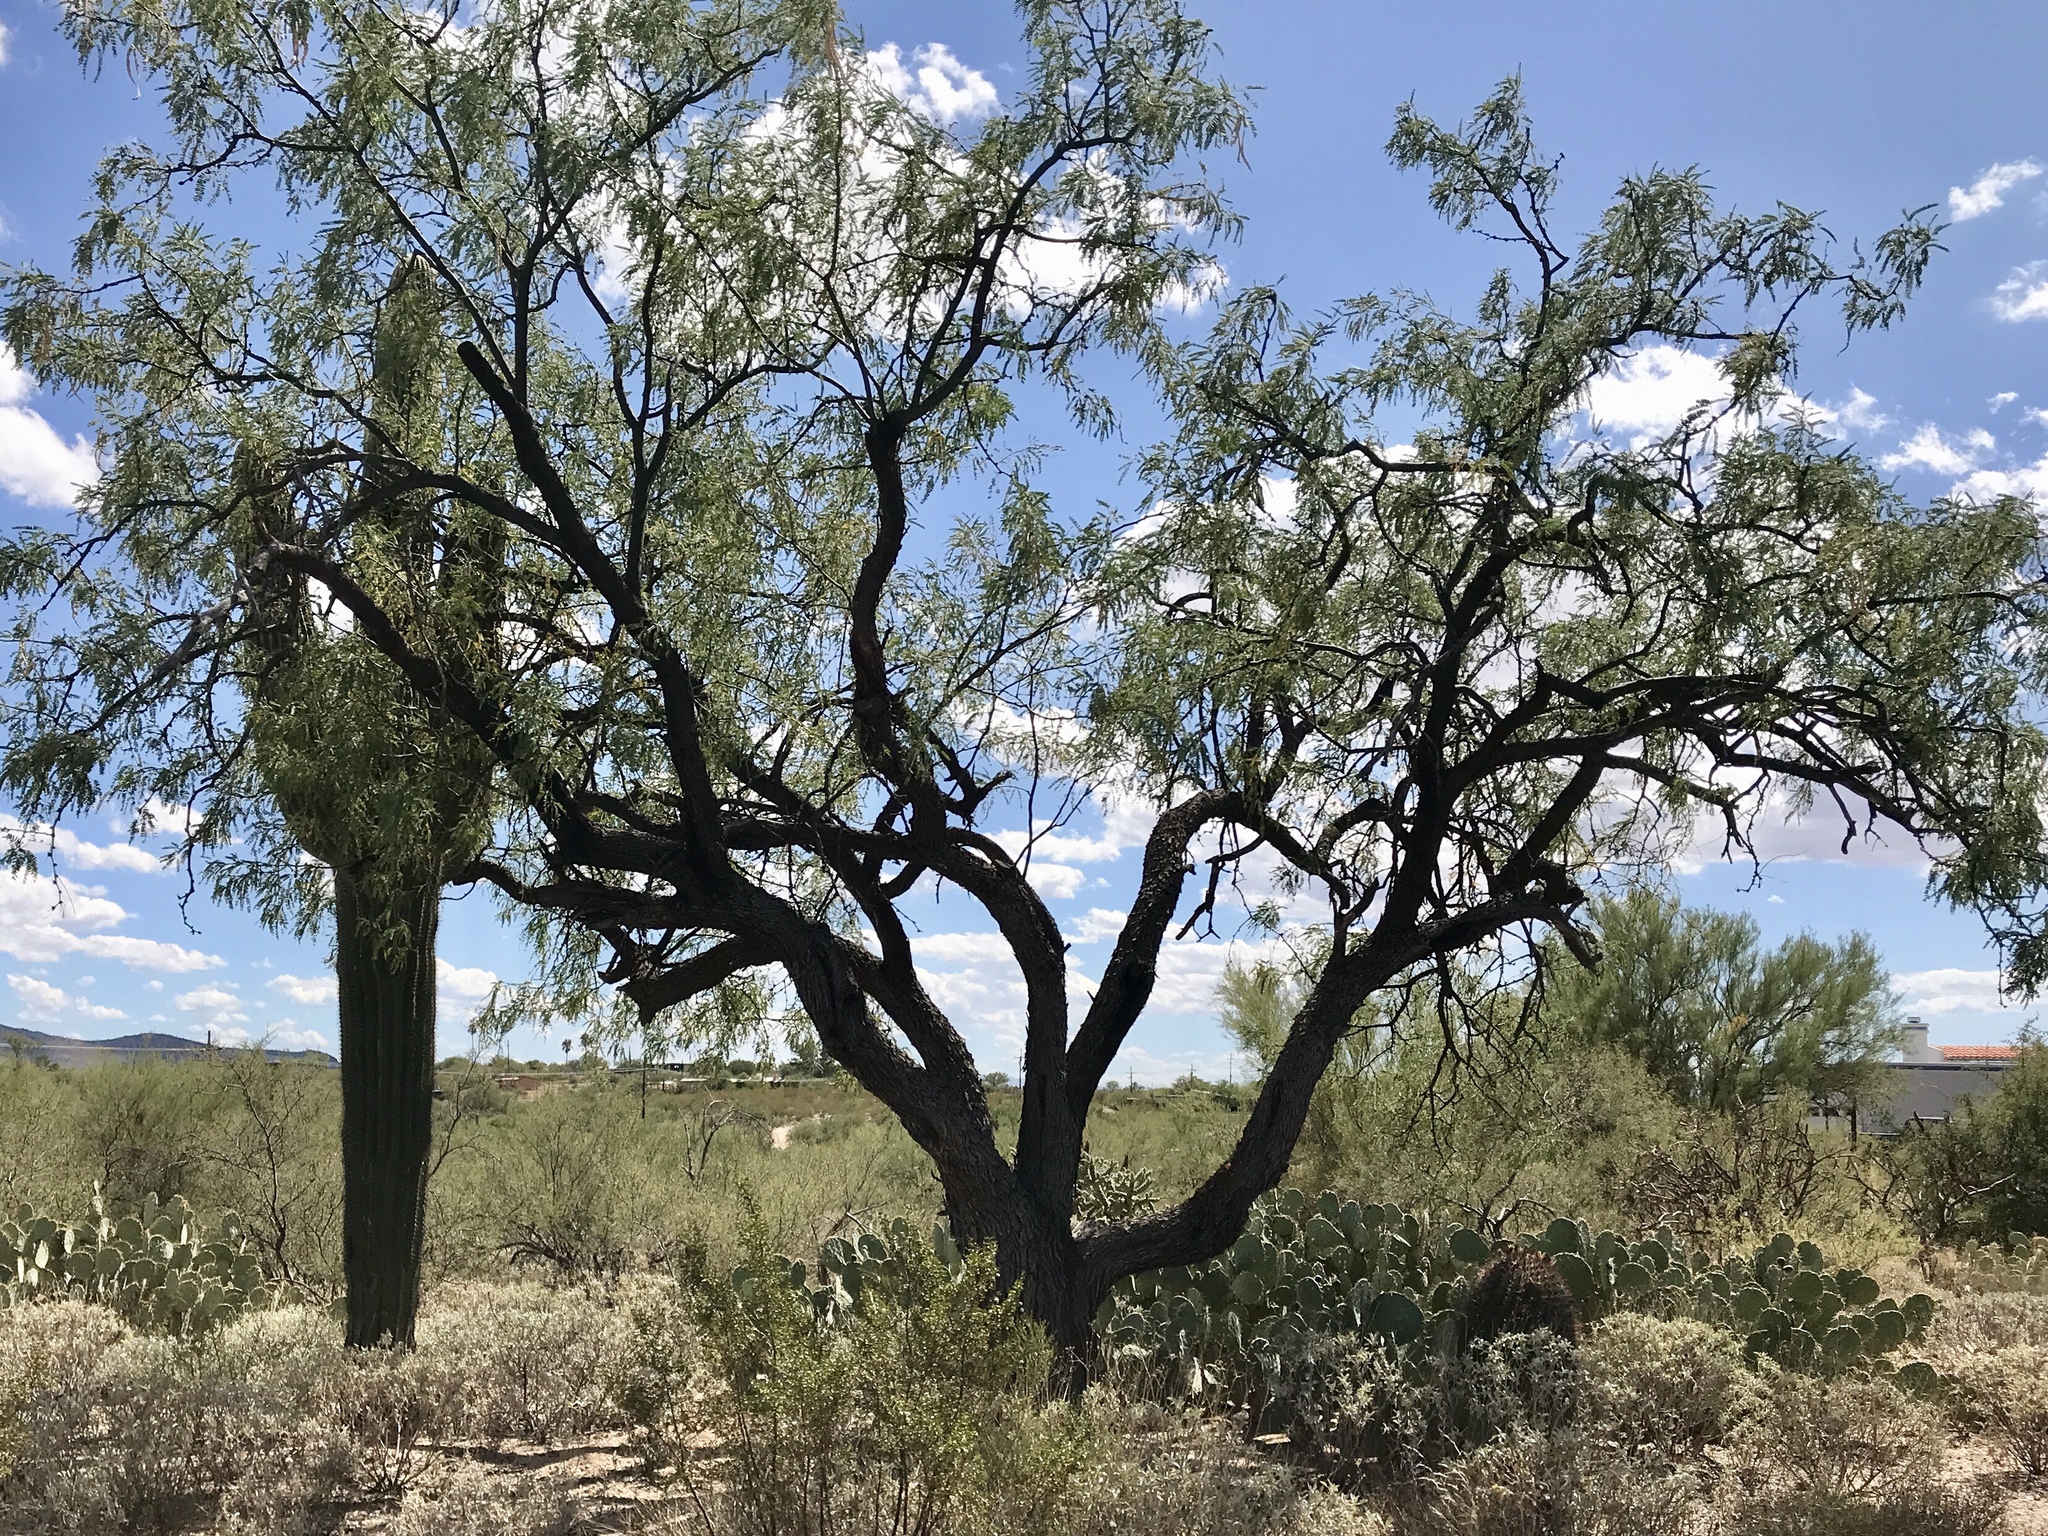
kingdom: Plantae
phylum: Tracheophyta
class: Magnoliopsida
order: Fabales
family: Fabaceae
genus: Prosopis
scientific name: Prosopis glandulosa
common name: Honey mesquite
